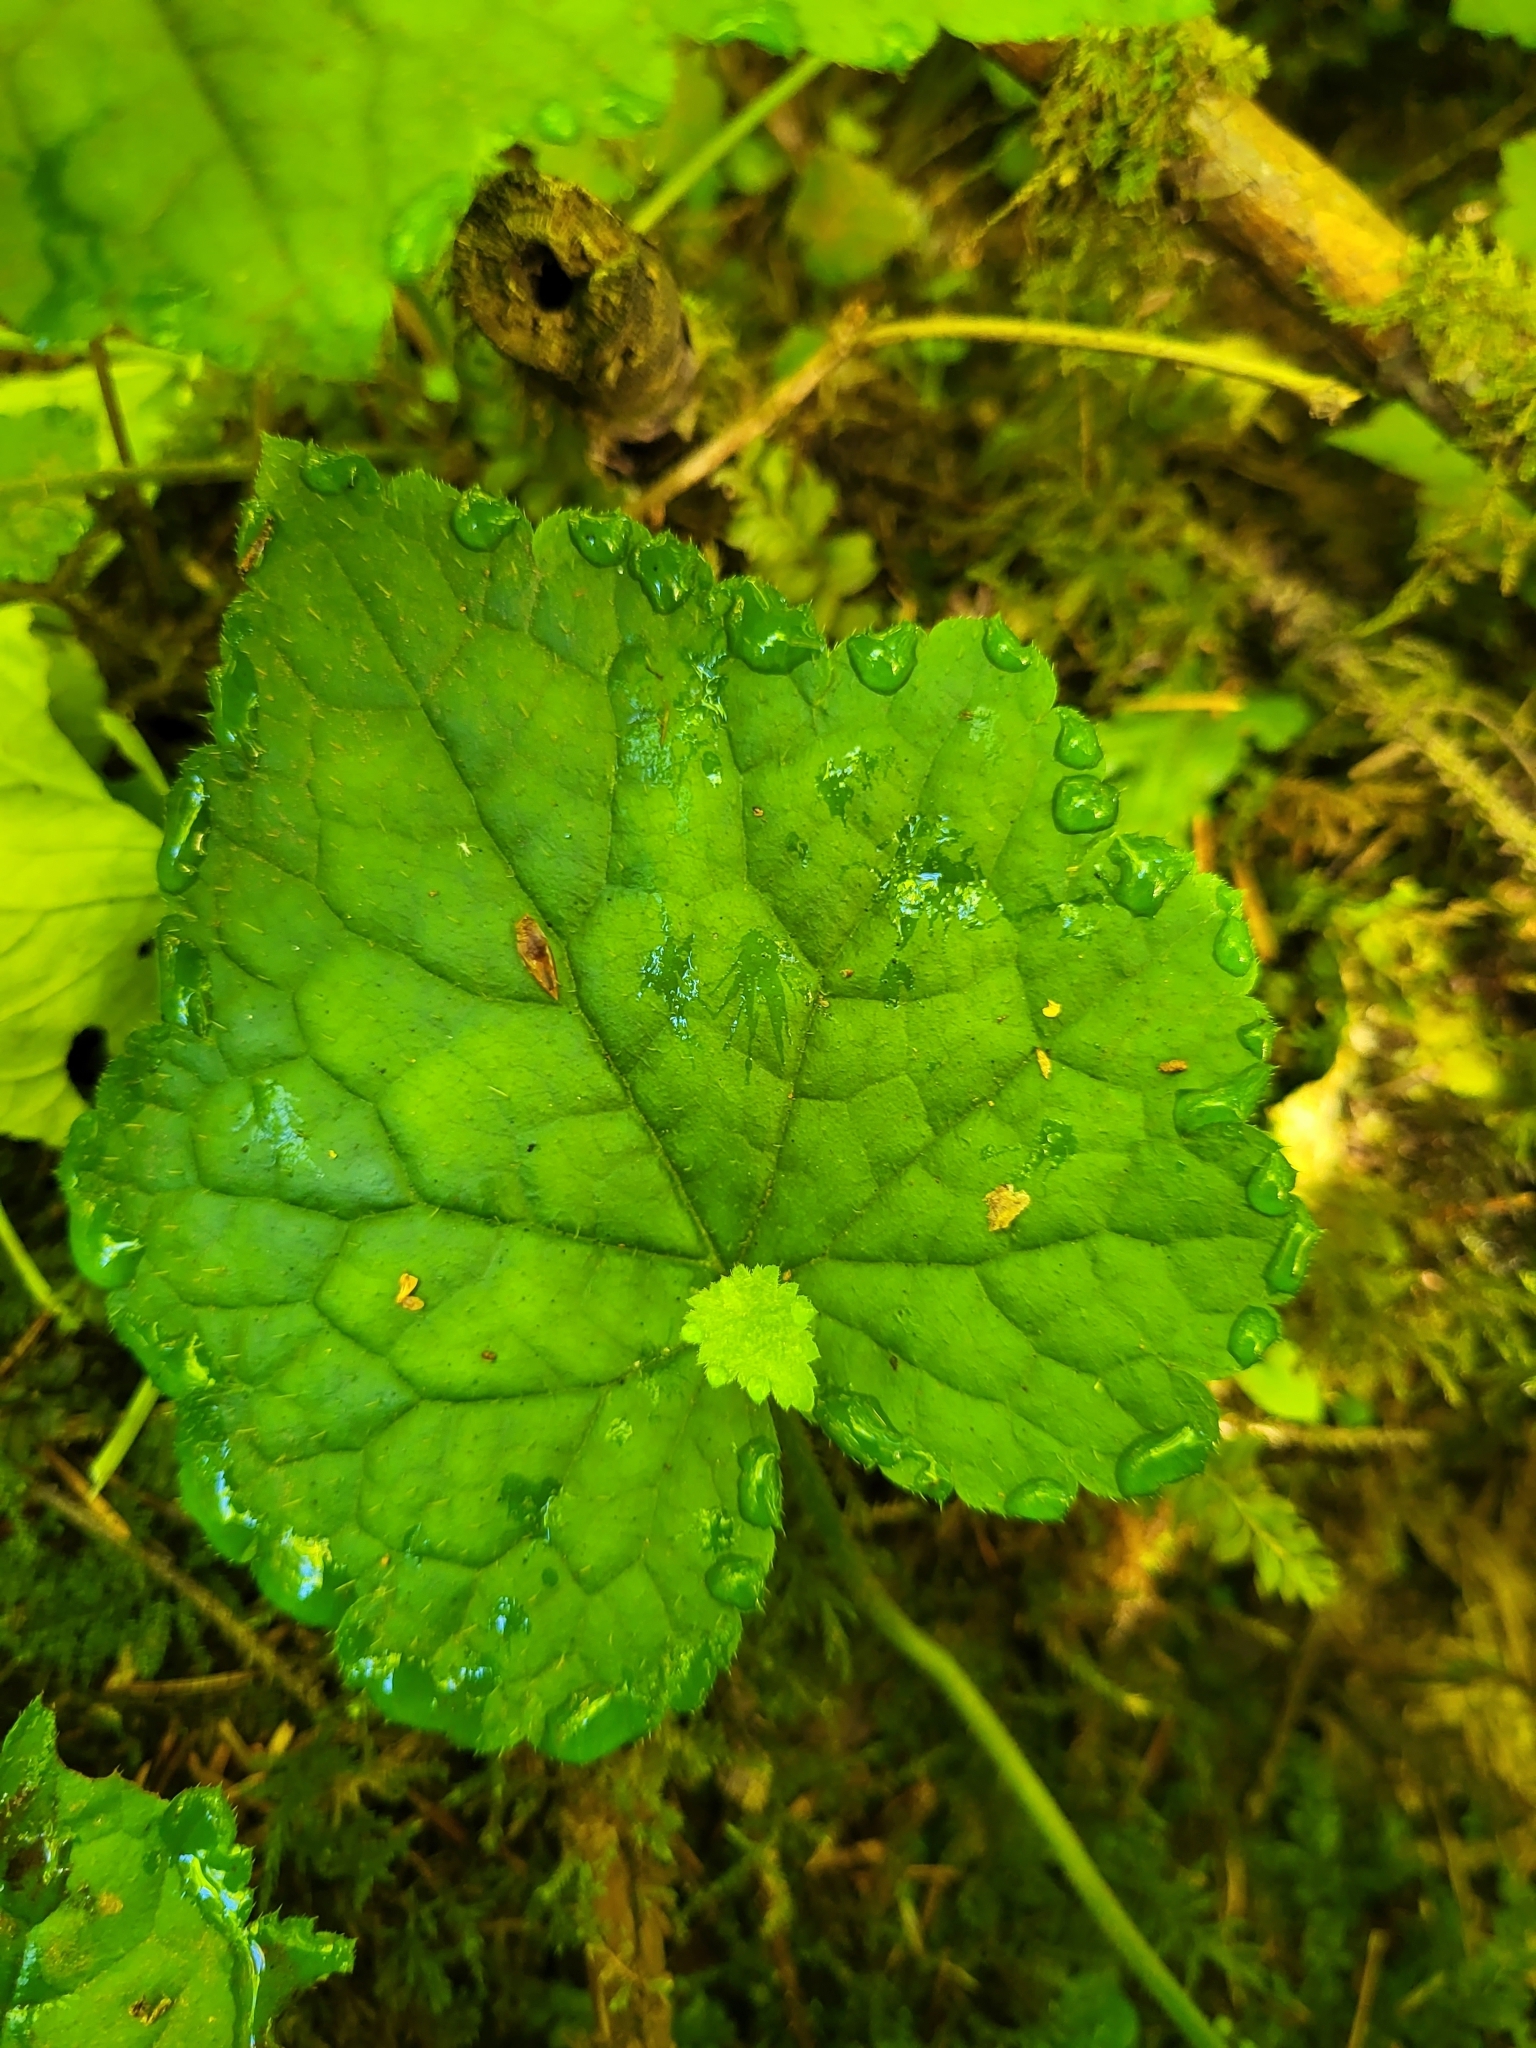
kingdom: Plantae
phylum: Tracheophyta
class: Magnoliopsida
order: Saxifragales
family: Saxifragaceae
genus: Tolmiea
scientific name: Tolmiea menziesii
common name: Pick-a-back-plant
